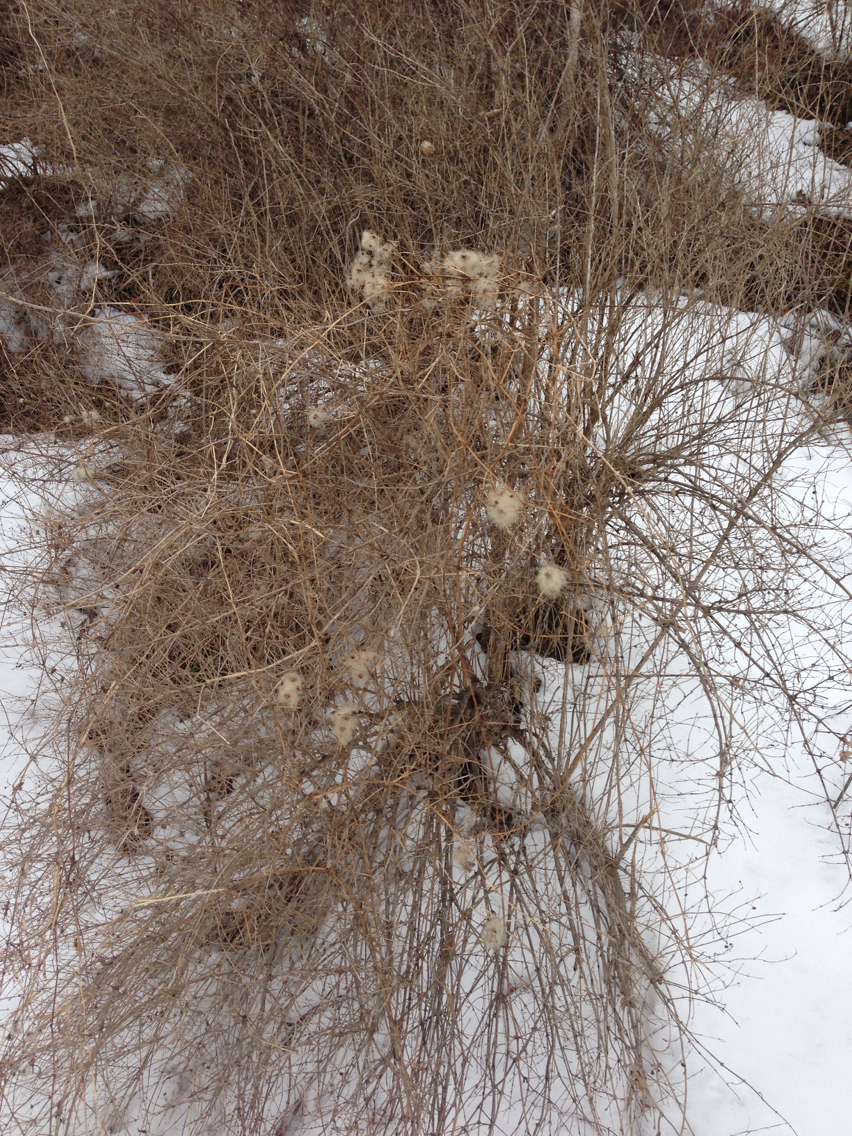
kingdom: Plantae
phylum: Tracheophyta
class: Magnoliopsida
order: Ranunculales
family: Ranunculaceae
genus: Clematis
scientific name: Clematis virginiana
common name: Virgin's-bower
